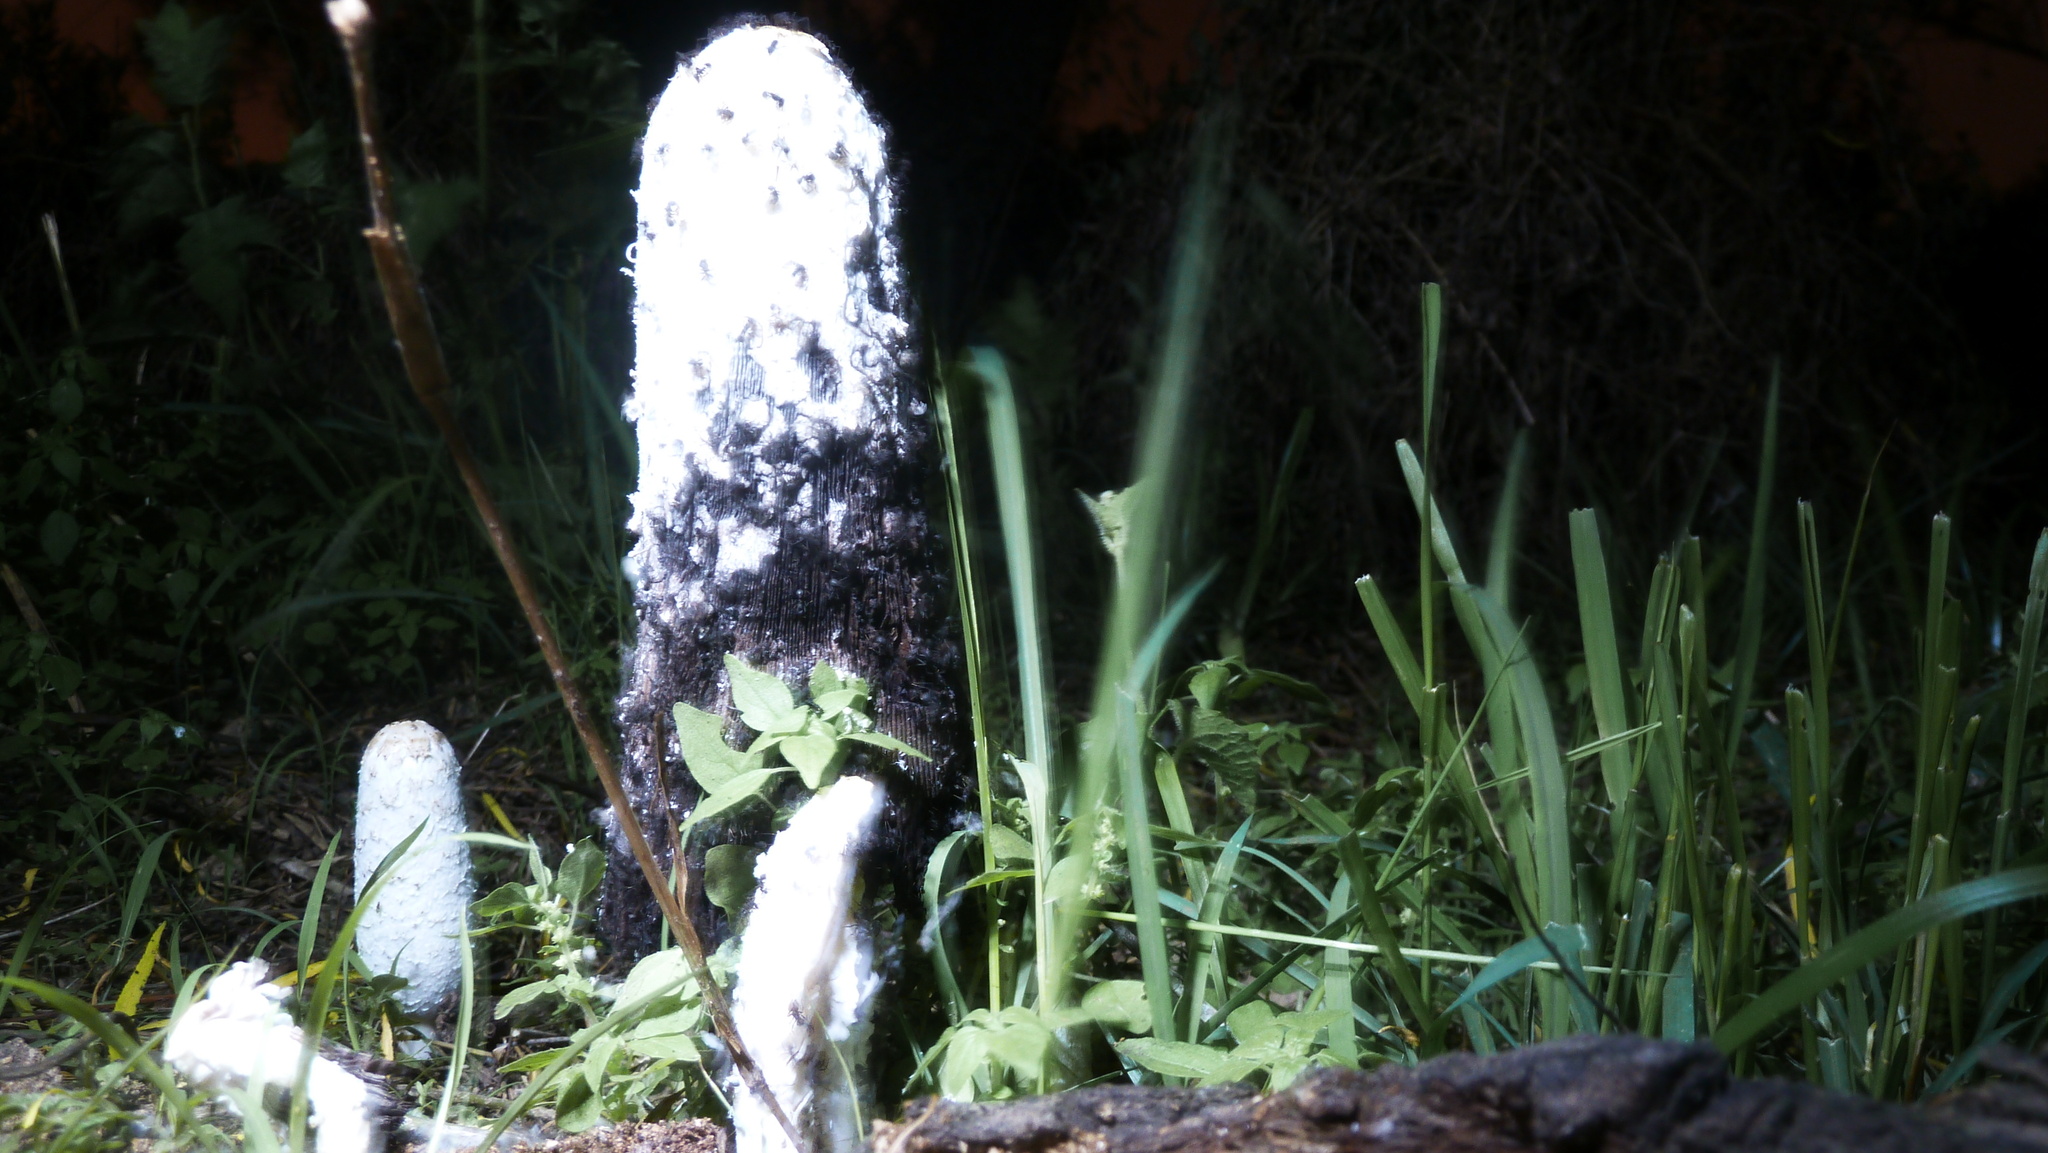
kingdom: Fungi
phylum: Basidiomycota
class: Agaricomycetes
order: Agaricales
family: Agaricaceae
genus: Coprinus
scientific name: Coprinus comatus
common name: Lawyer's wig
